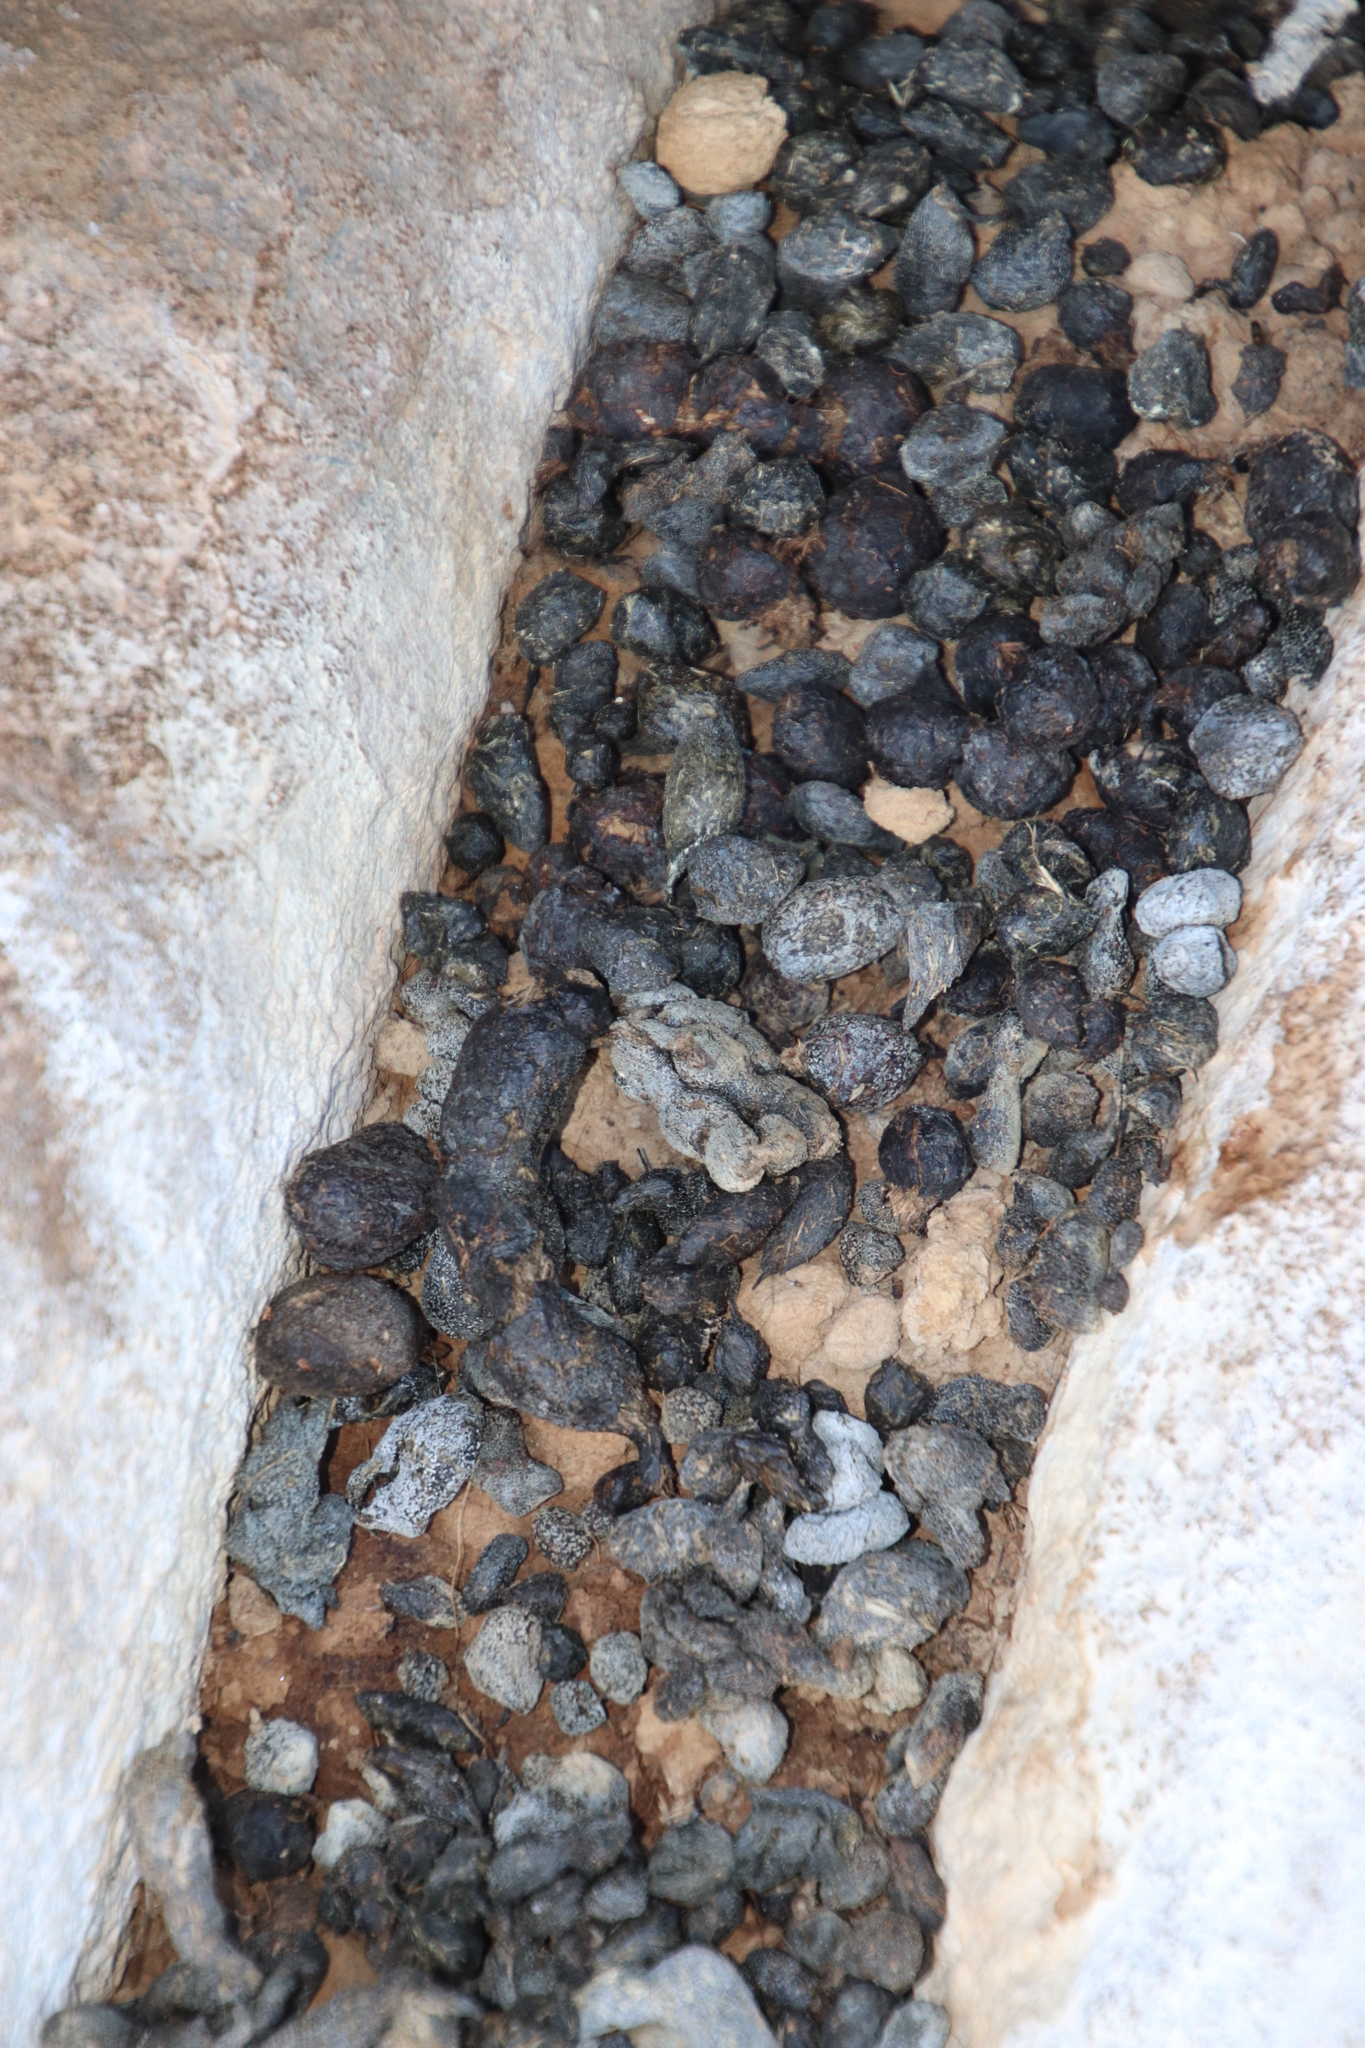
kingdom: Animalia
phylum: Chordata
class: Mammalia
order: Hyracoidea
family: Procaviidae
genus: Procavia
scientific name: Procavia capensis
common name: Rock hyrax
